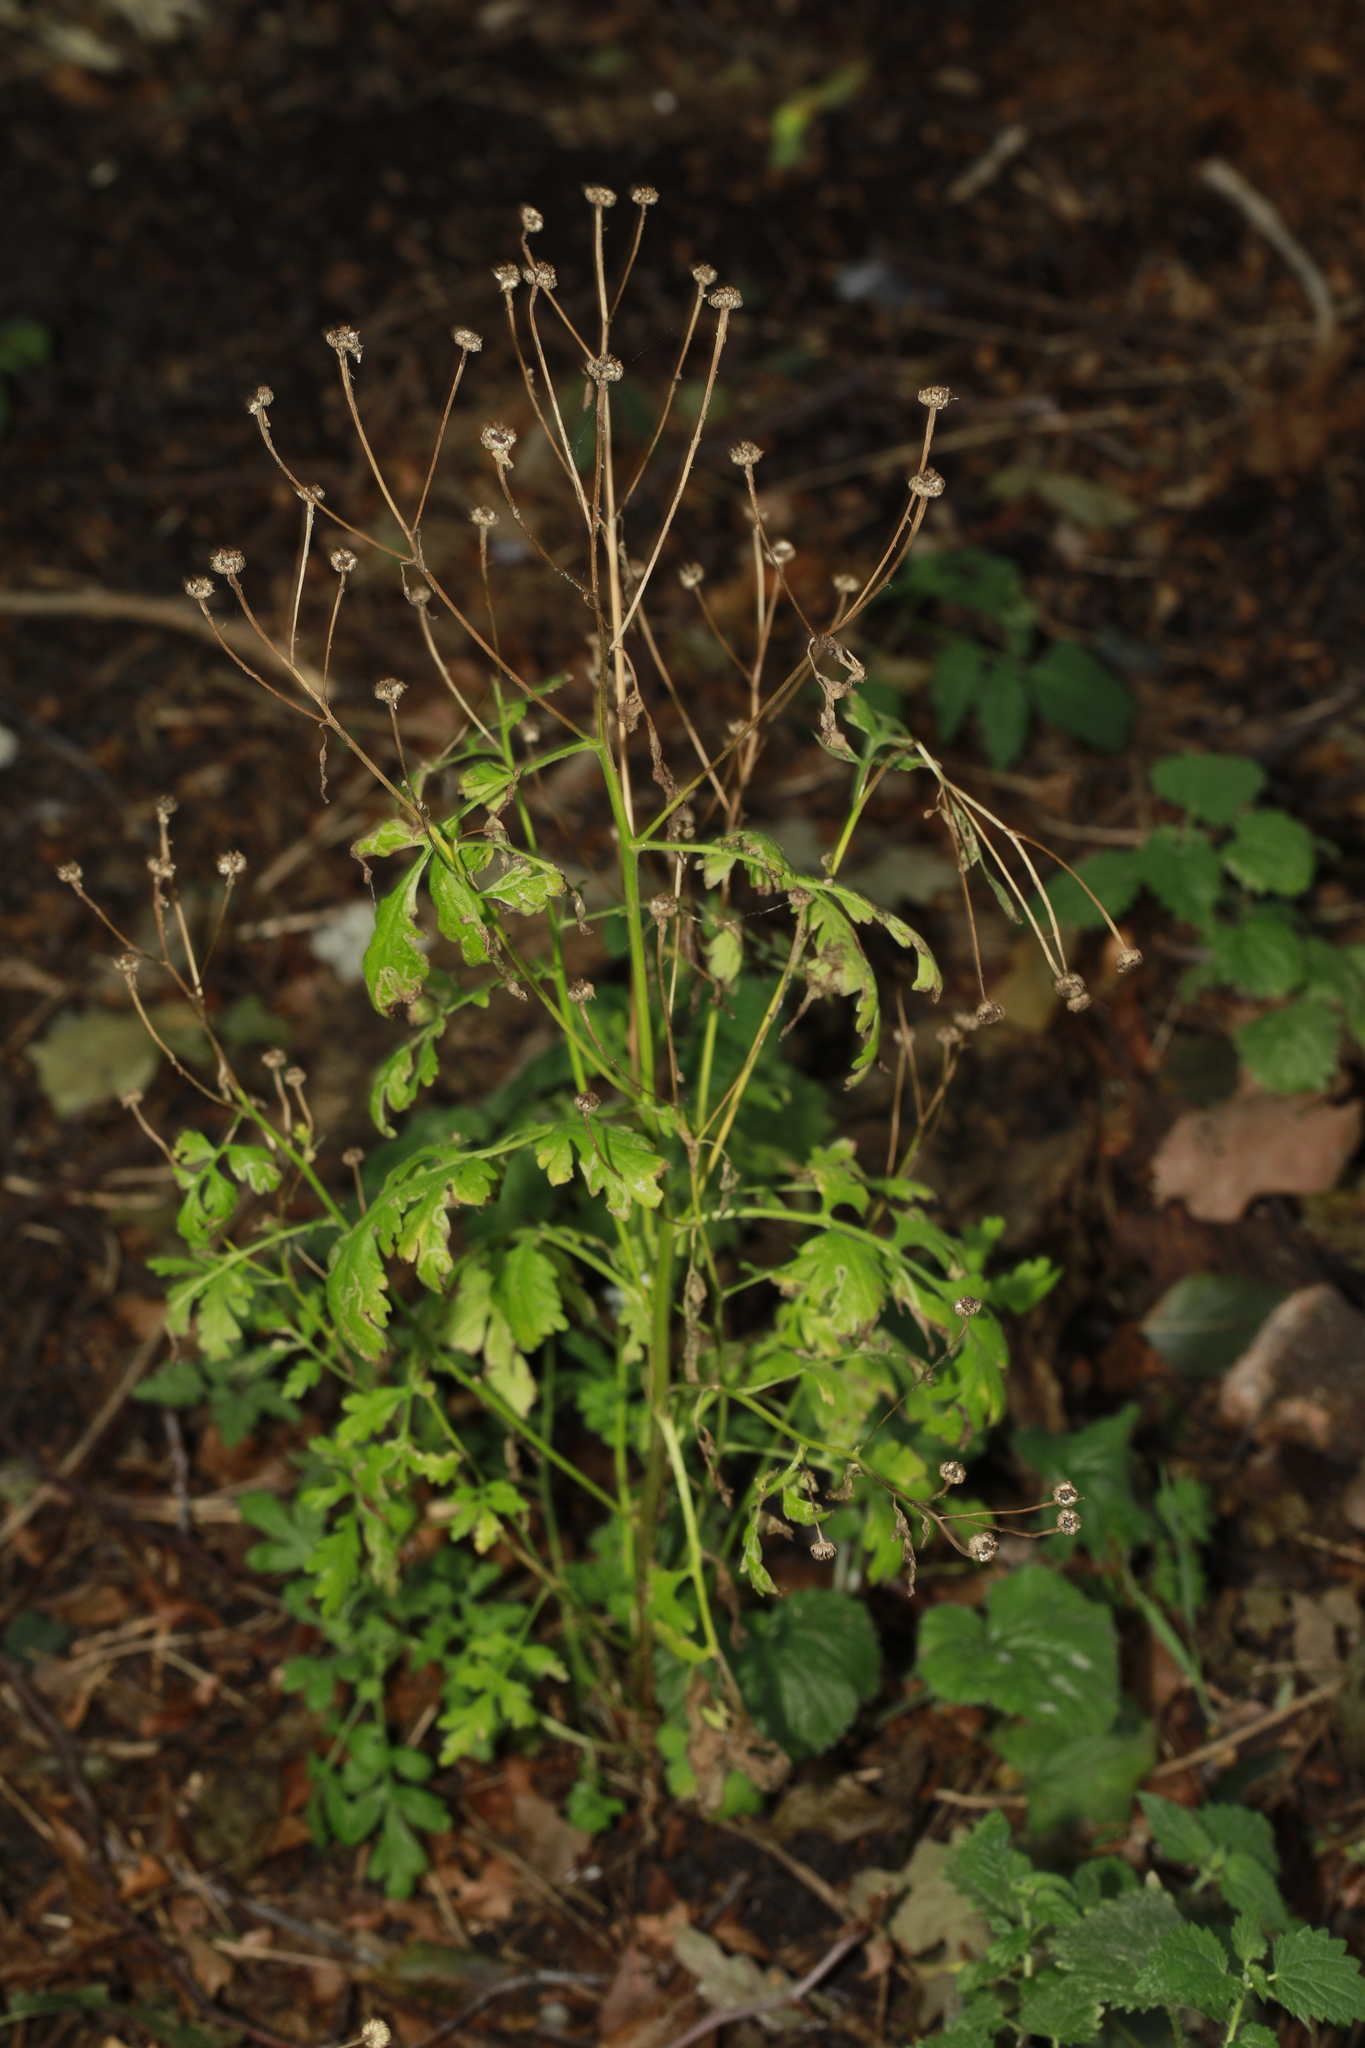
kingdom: Plantae
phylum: Tracheophyta
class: Magnoliopsida
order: Asterales
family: Asteraceae
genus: Tanacetum
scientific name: Tanacetum parthenium
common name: Feverfew
